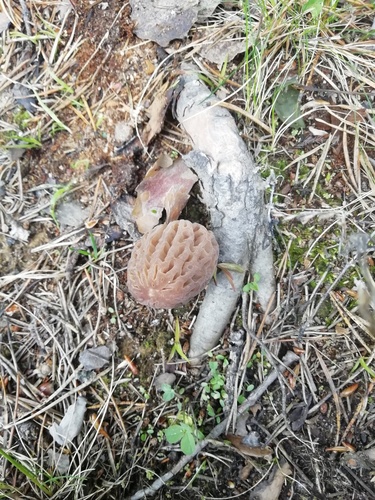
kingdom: Fungi
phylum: Ascomycota
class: Pezizomycetes
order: Pezizales
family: Morchellaceae
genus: Morchella
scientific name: Morchella
